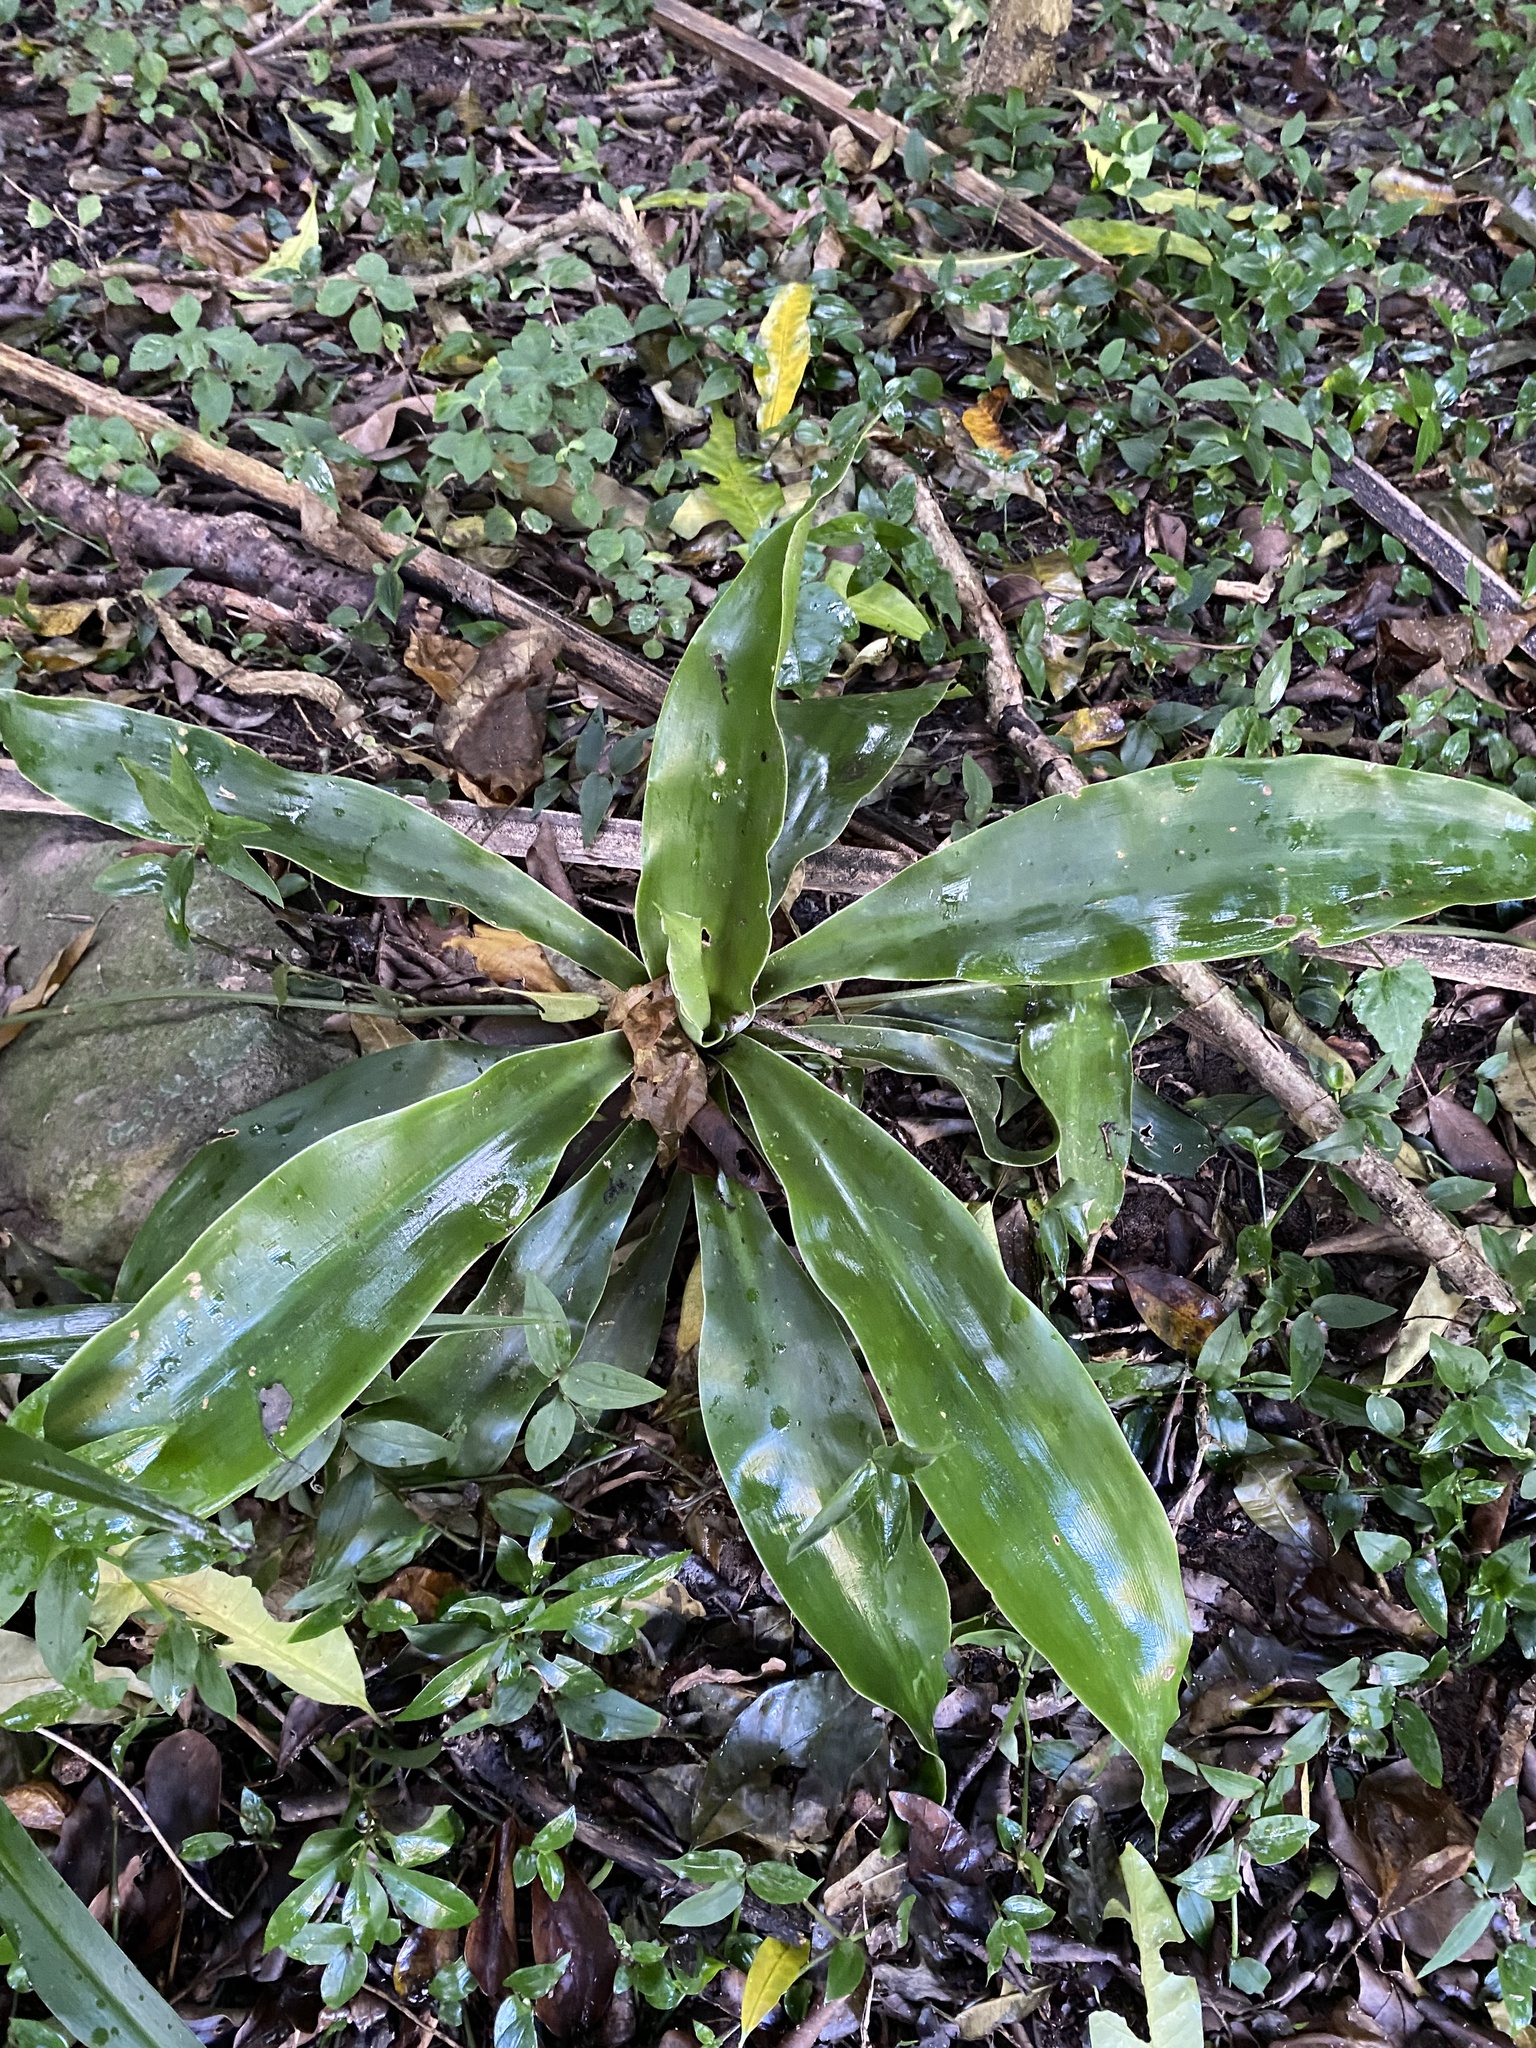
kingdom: Plantae
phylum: Tracheophyta
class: Liliopsida
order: Asparagales
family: Asparagaceae
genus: Dracaena
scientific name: Dracaena aletriformis
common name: Large-leaved dragon tree
